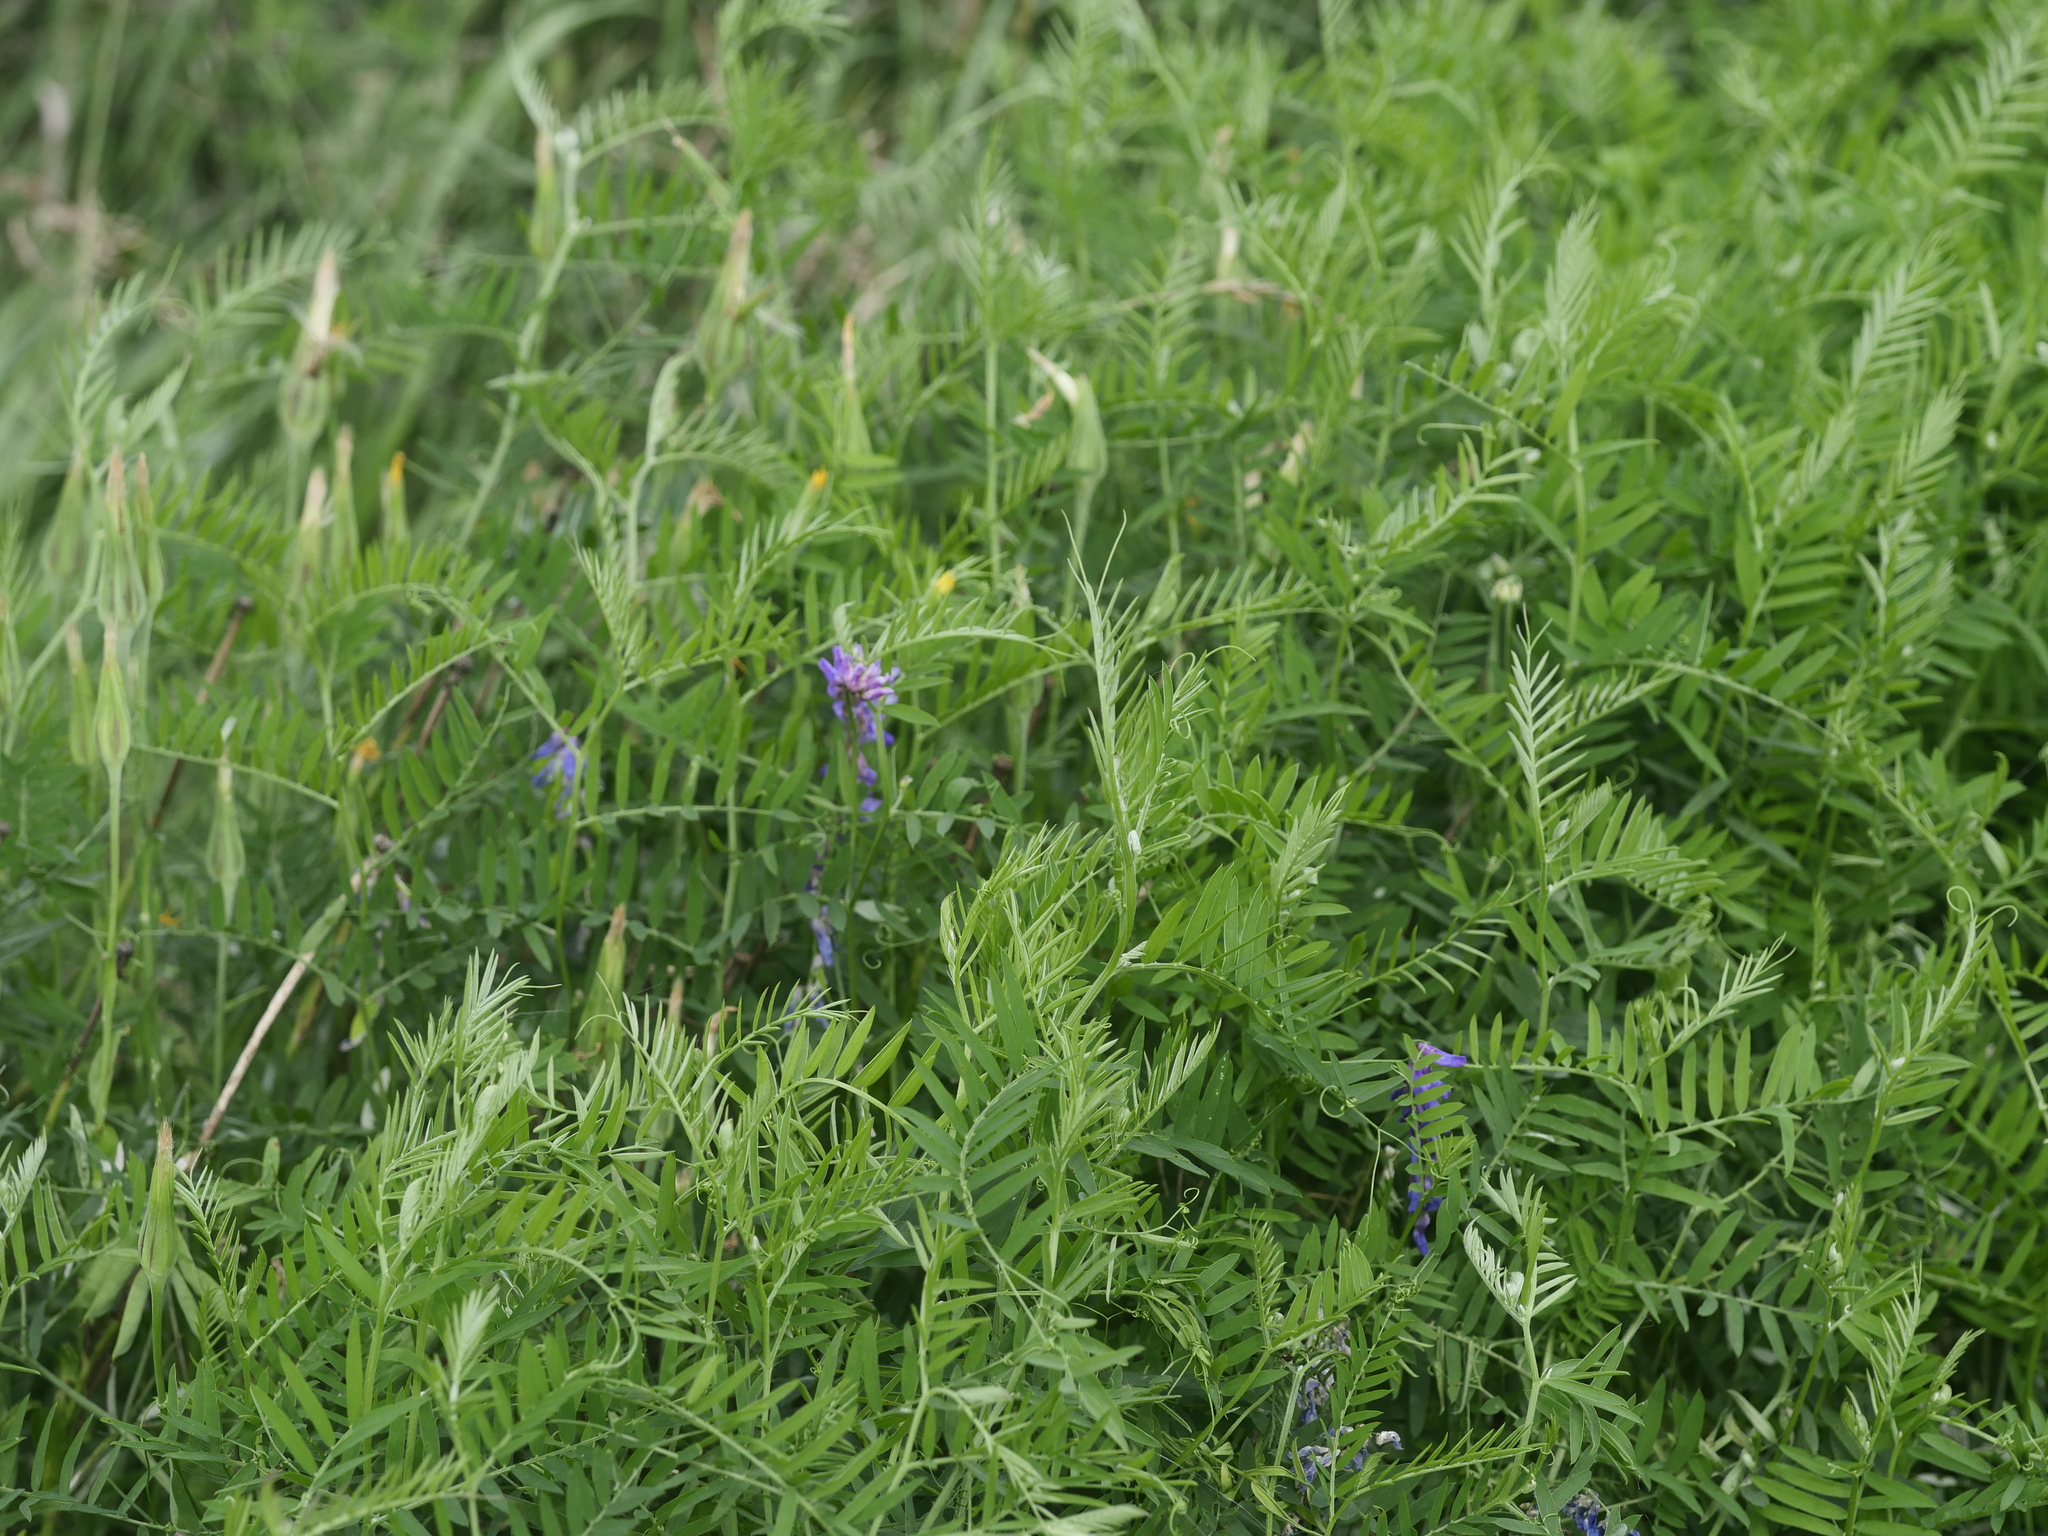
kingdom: Plantae
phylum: Tracheophyta
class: Magnoliopsida
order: Fabales
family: Fabaceae
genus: Vicia
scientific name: Vicia cracca
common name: Bird vetch
